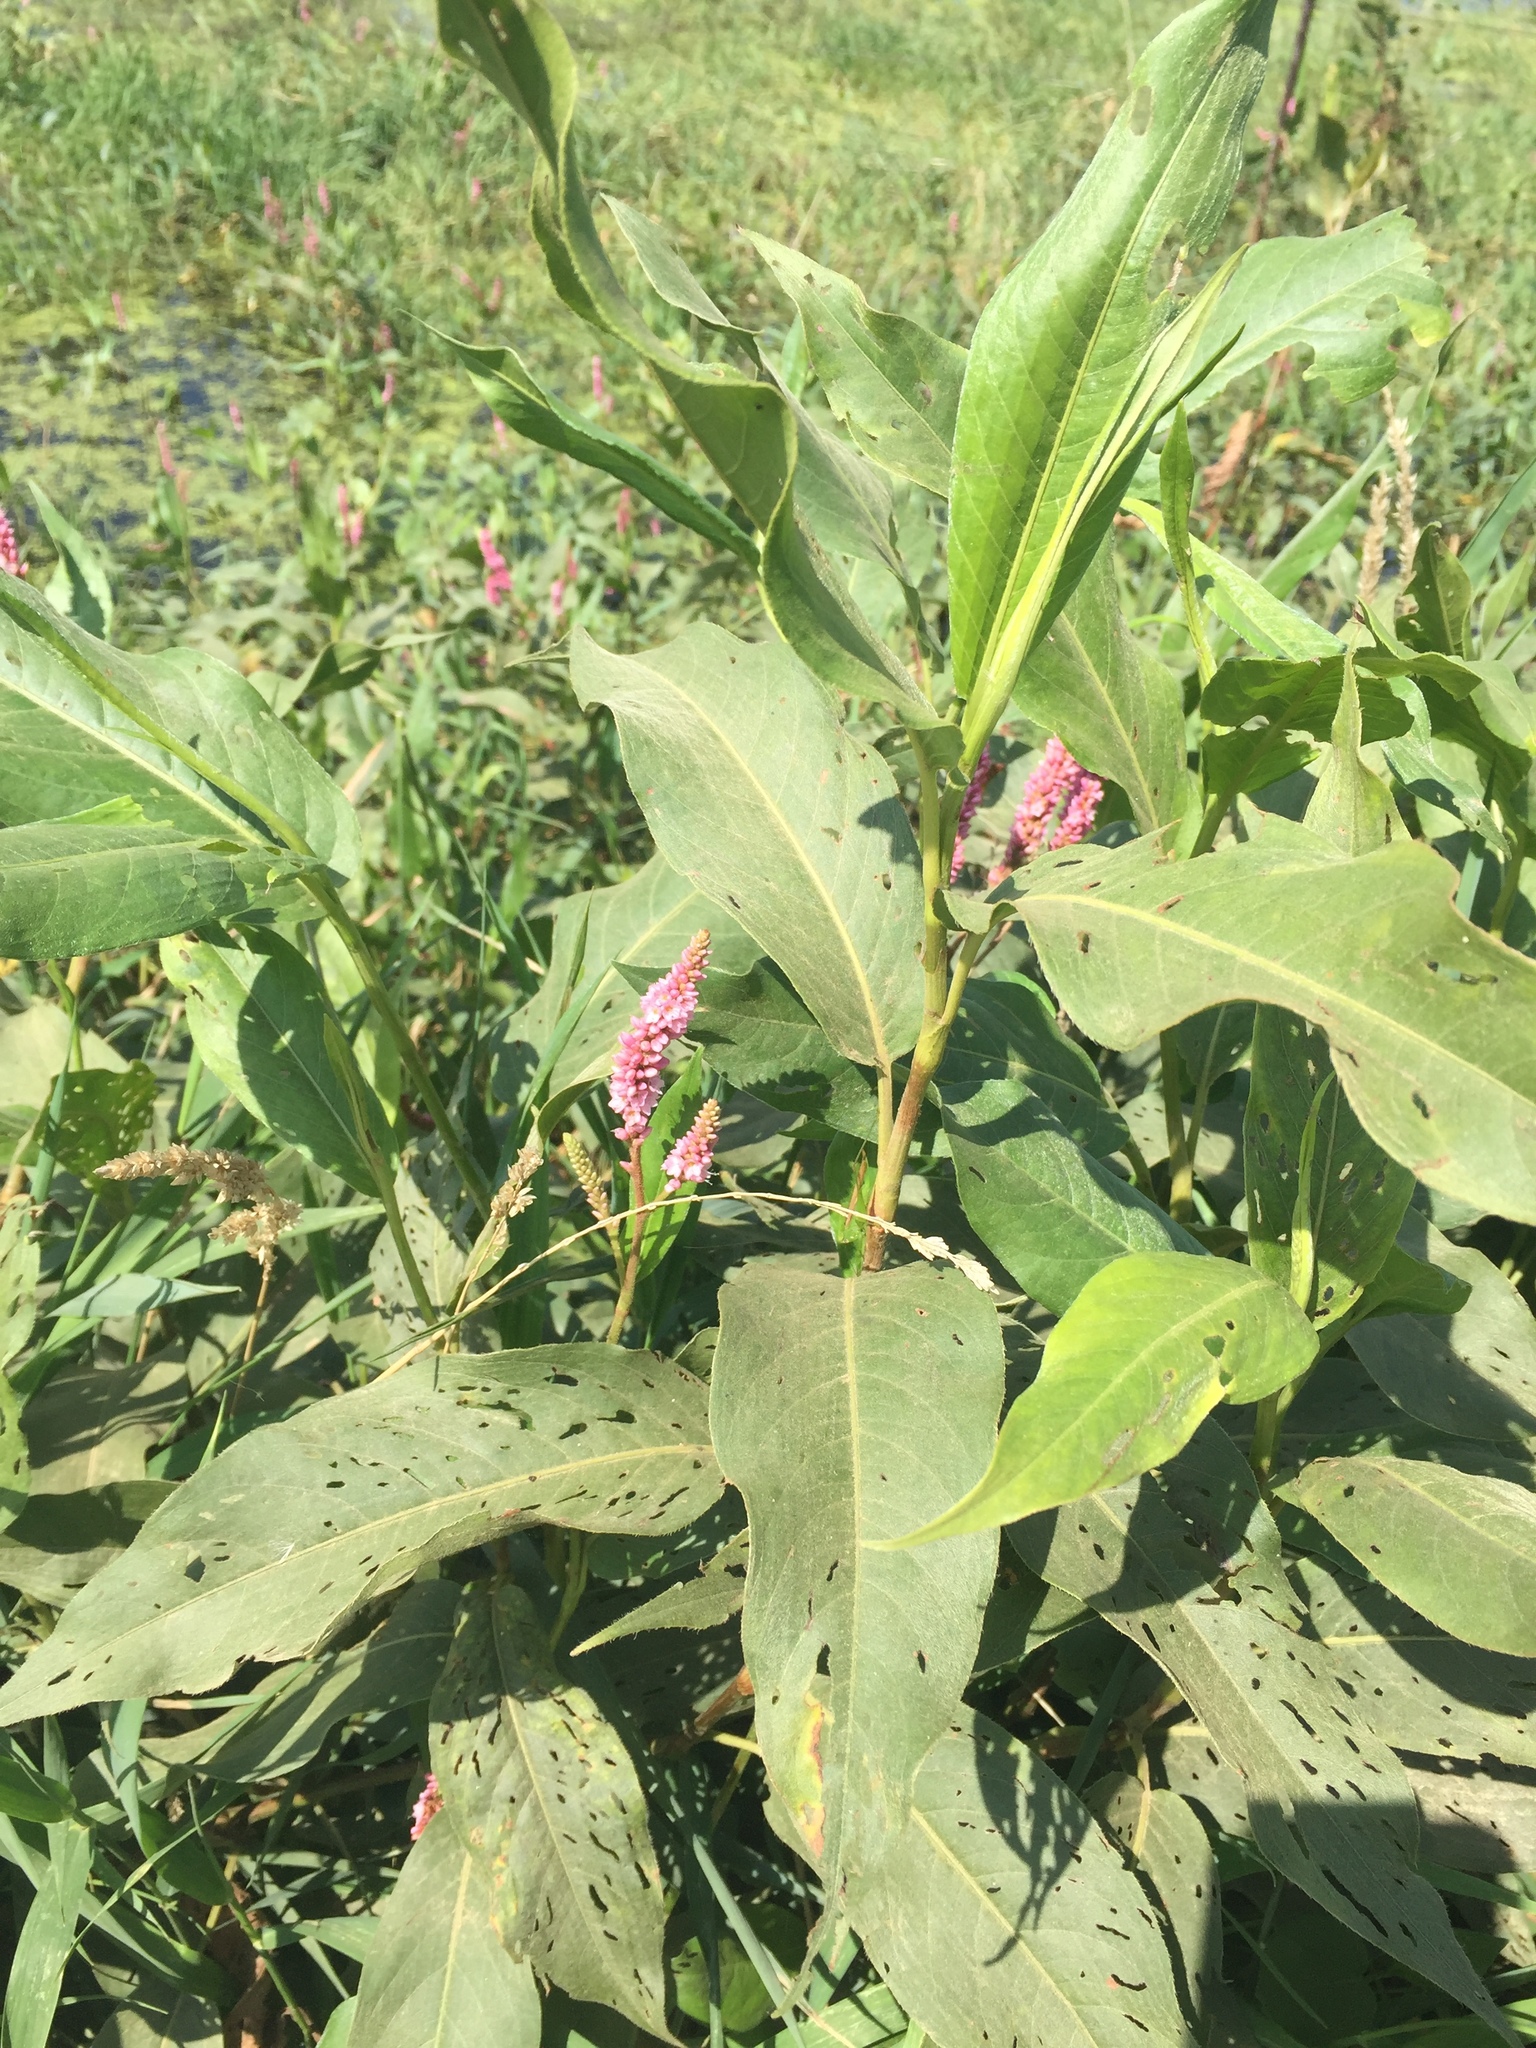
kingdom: Plantae
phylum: Tracheophyta
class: Magnoliopsida
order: Caryophyllales
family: Polygonaceae
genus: Persicaria
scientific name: Persicaria amphibia
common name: Amphibious bistort
